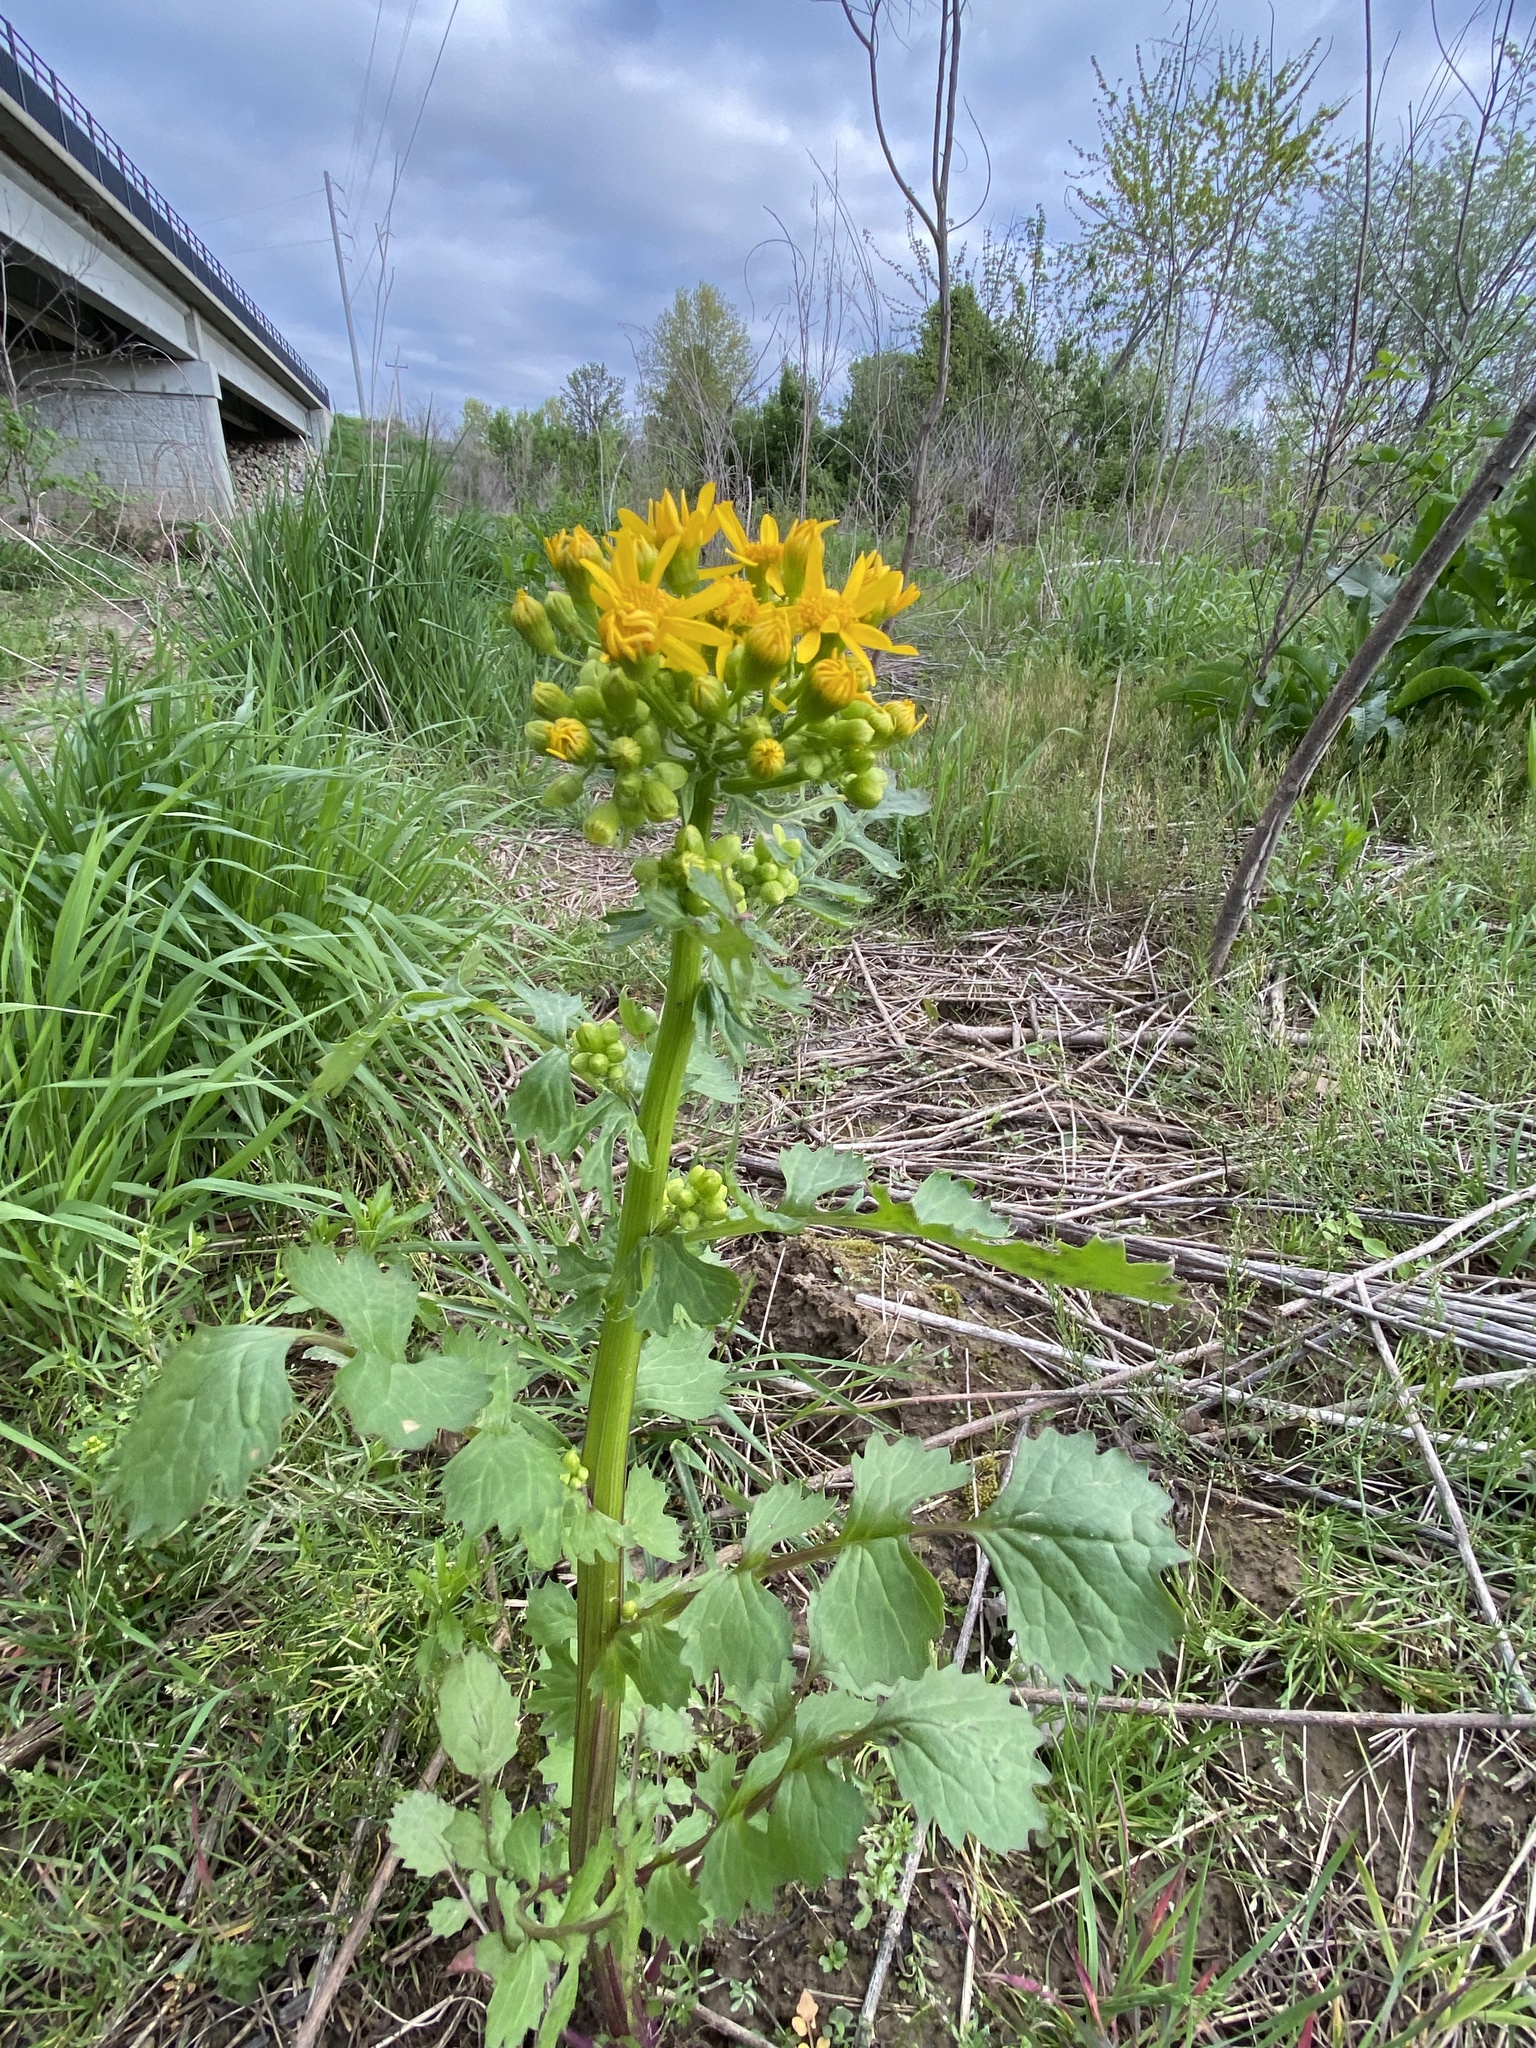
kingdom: Plantae
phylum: Tracheophyta
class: Magnoliopsida
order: Asterales
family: Asteraceae
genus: Packera
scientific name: Packera glabella
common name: Butterweed
